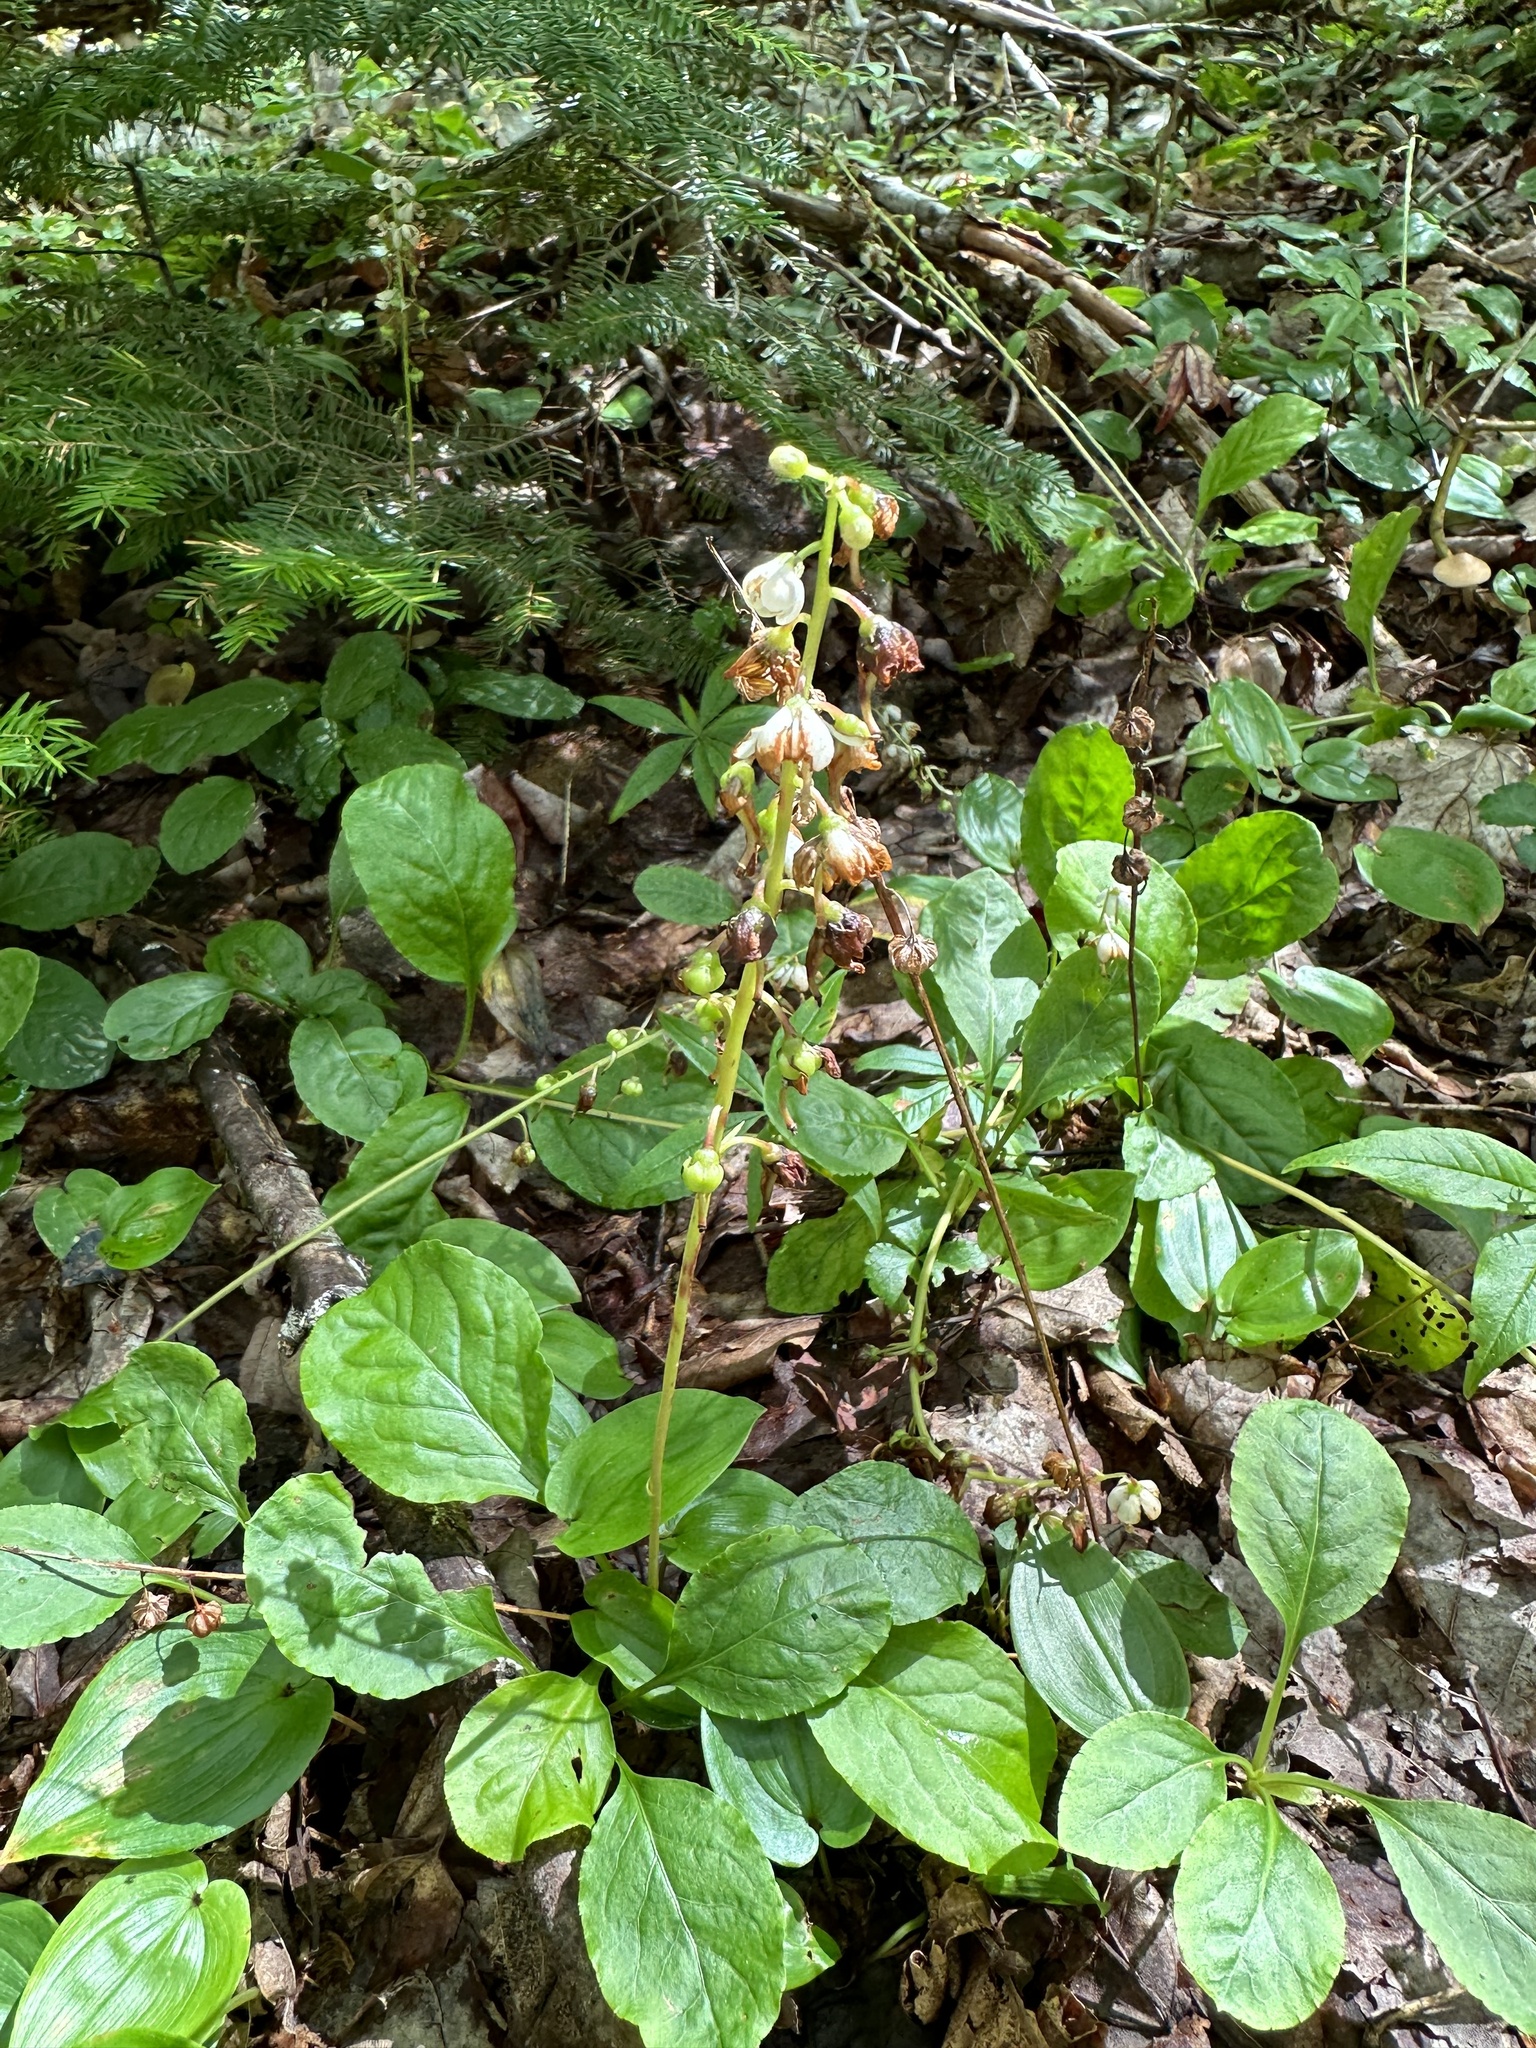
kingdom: Plantae
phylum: Tracheophyta
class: Magnoliopsida
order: Ericales
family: Ericaceae
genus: Pyrola
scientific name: Pyrola elliptica
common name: Shinleaf
